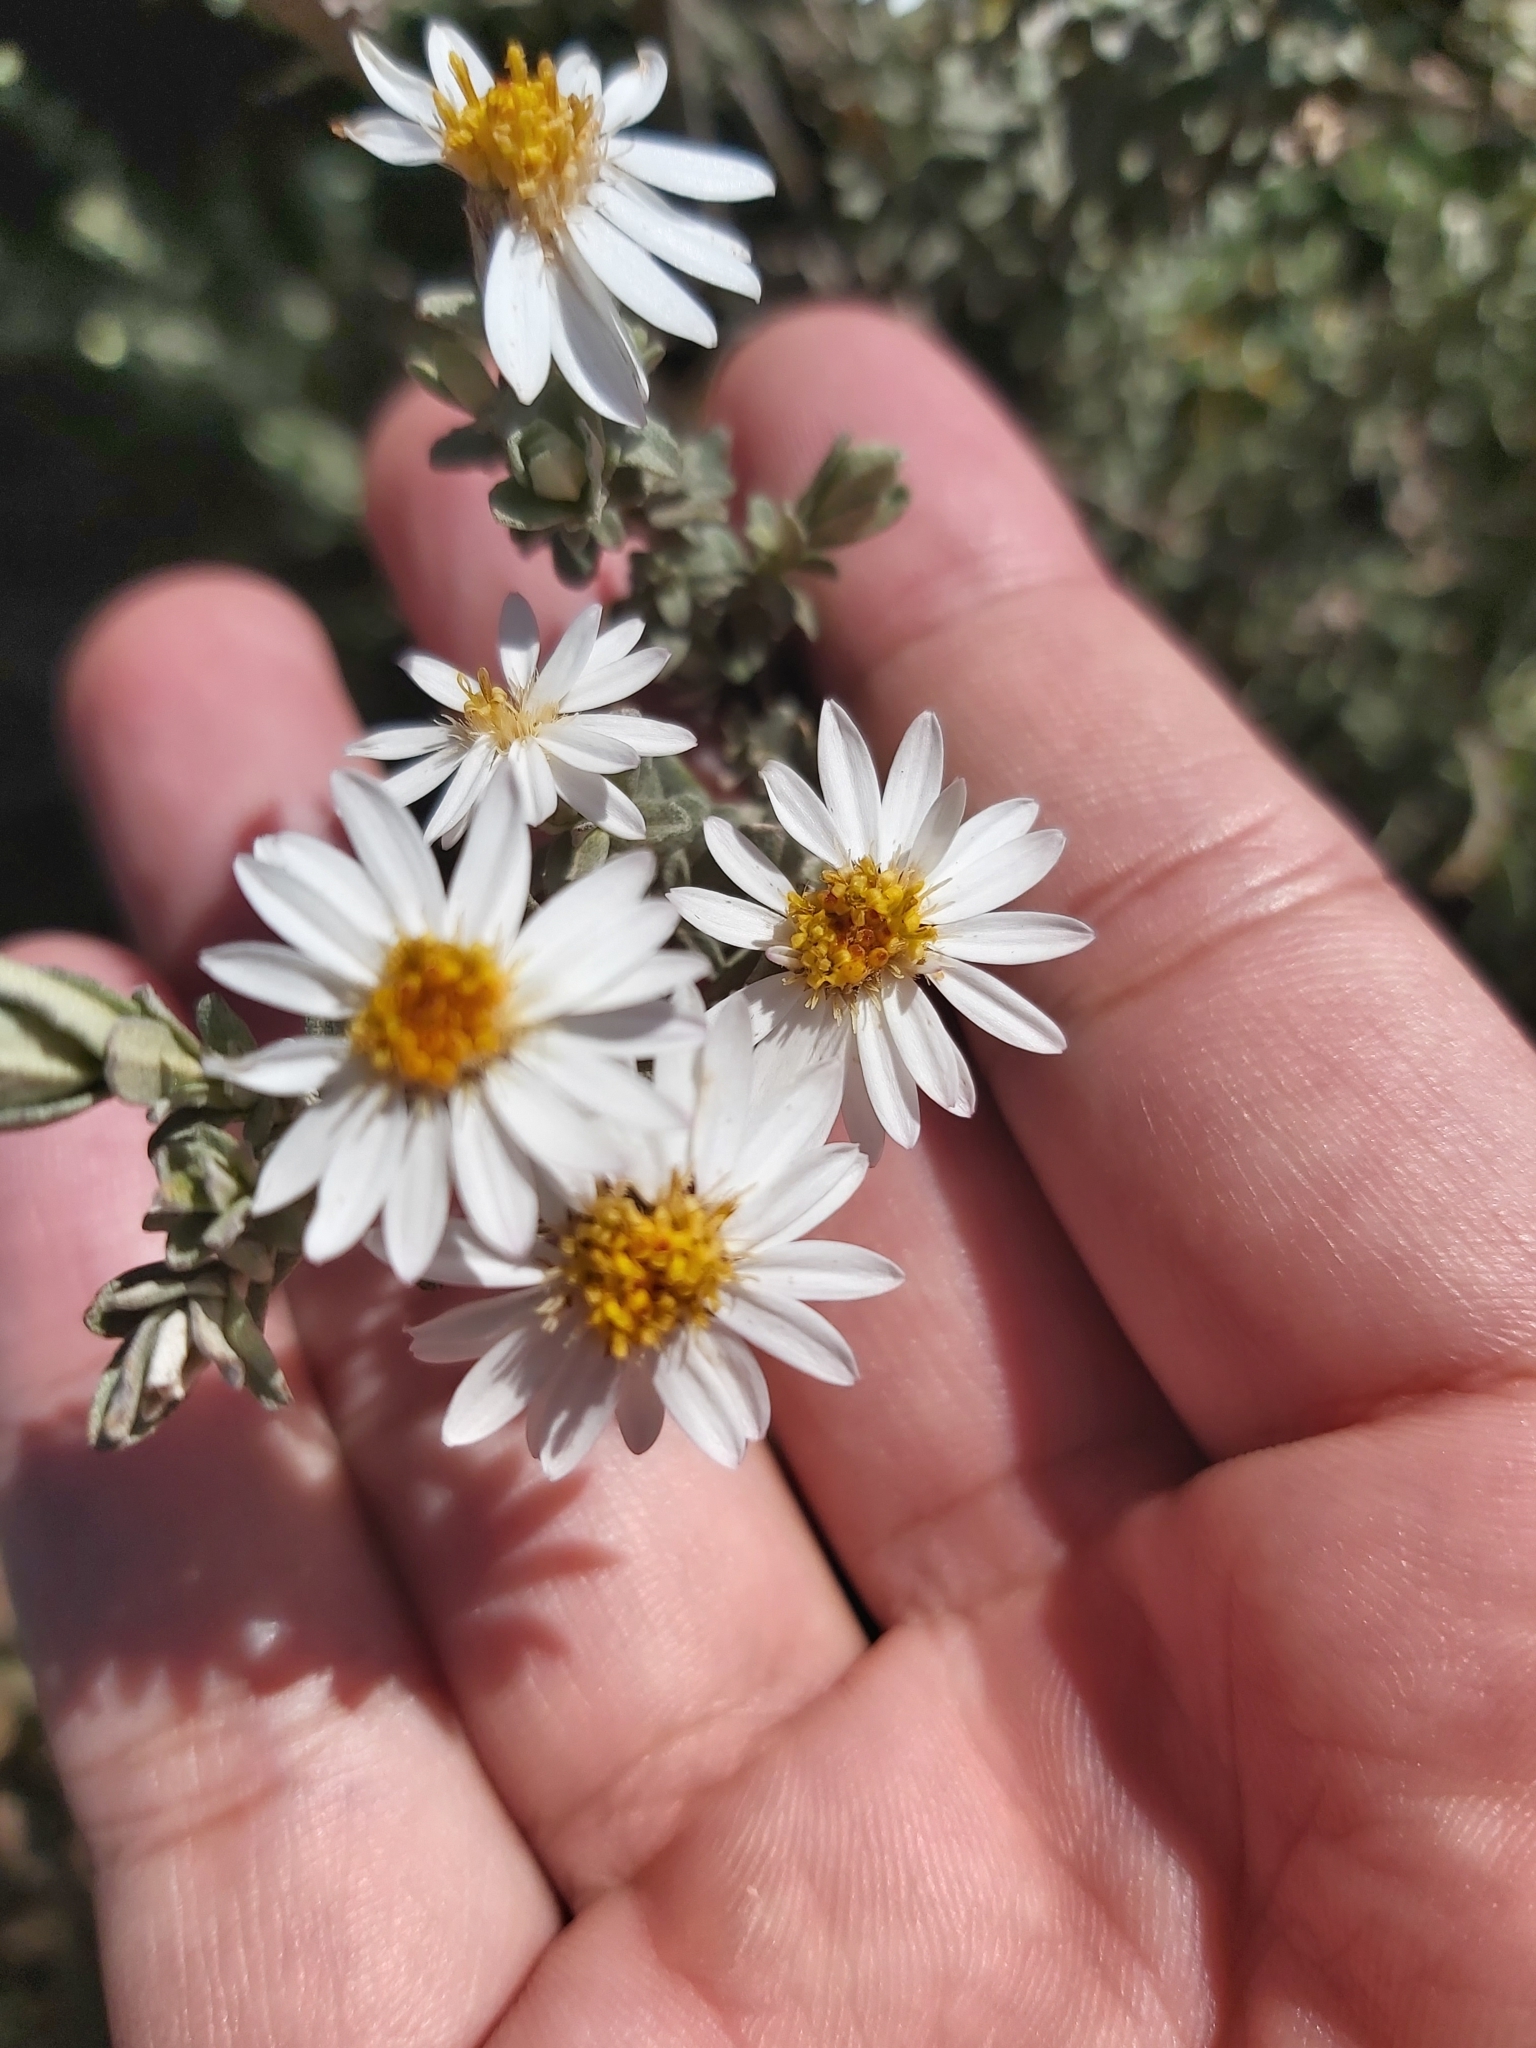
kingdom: Plantae
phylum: Tracheophyta
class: Magnoliopsida
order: Asterales
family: Asteraceae
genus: Olearia
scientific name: Olearia phlogopappa
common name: Alpine daisybush
